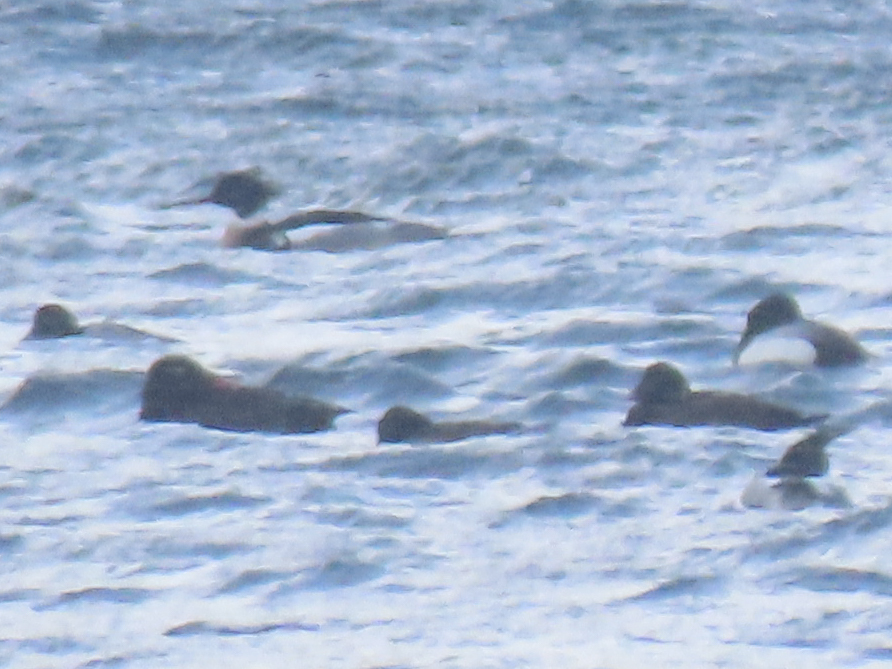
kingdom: Animalia
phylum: Chordata
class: Aves
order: Anseriformes
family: Anatidae
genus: Melanitta
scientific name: Melanitta deglandi
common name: White-winged scoter
